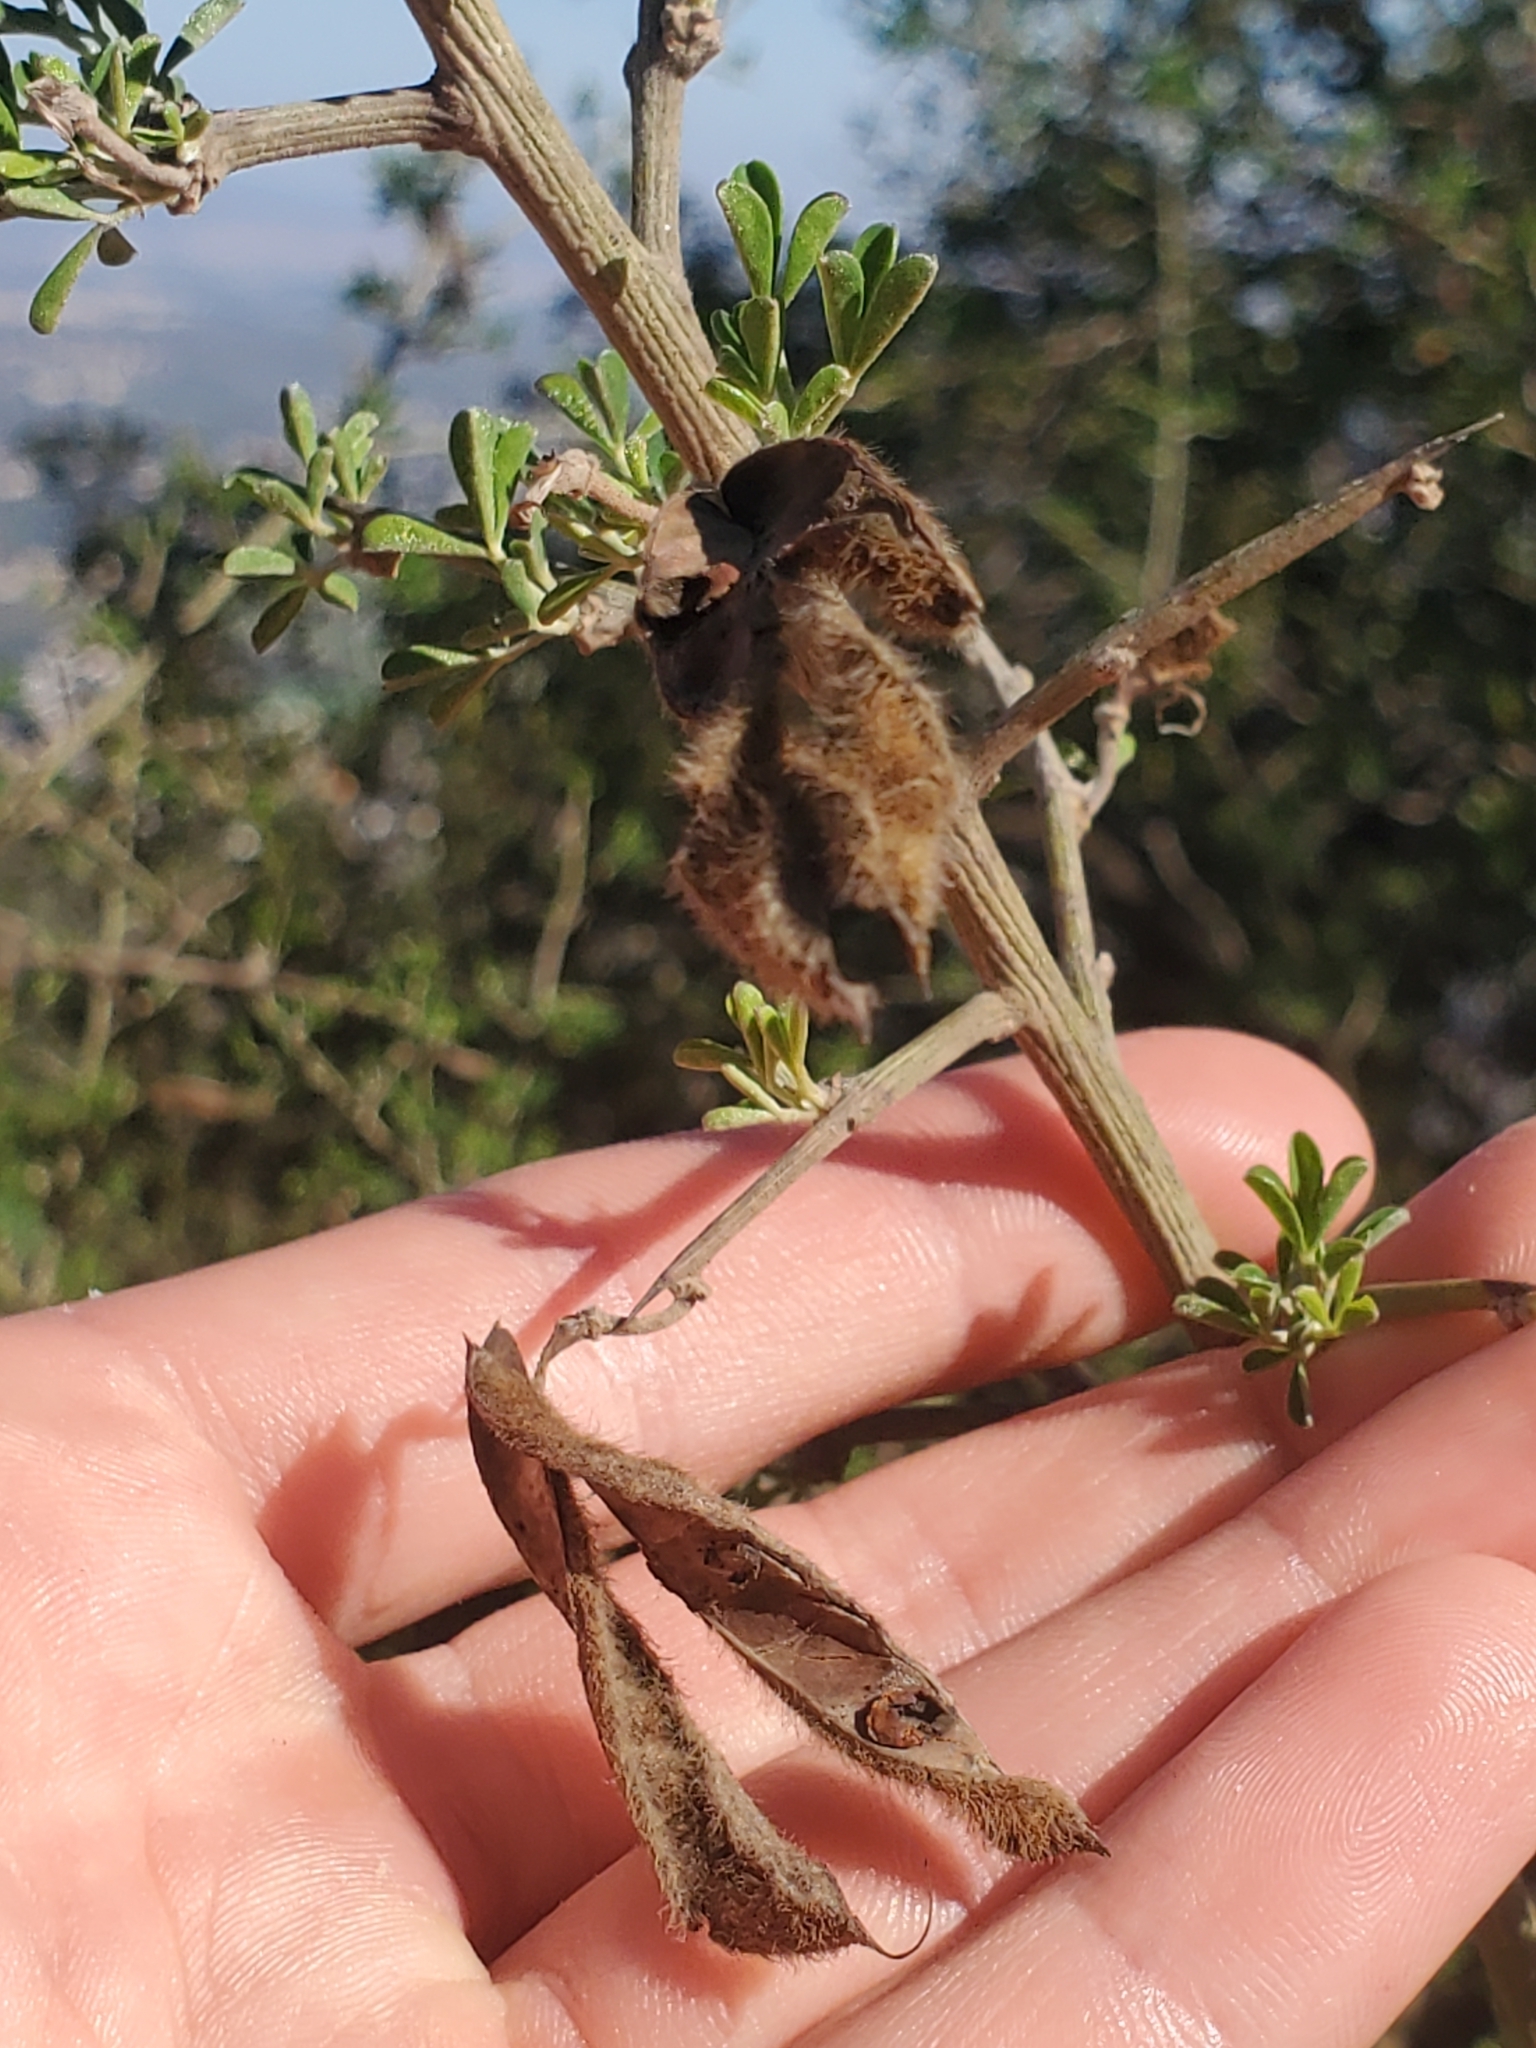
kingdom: Plantae
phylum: Tracheophyta
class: Magnoliopsida
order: Fabales
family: Fabaceae
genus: Calicotome
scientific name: Calicotome villosa
